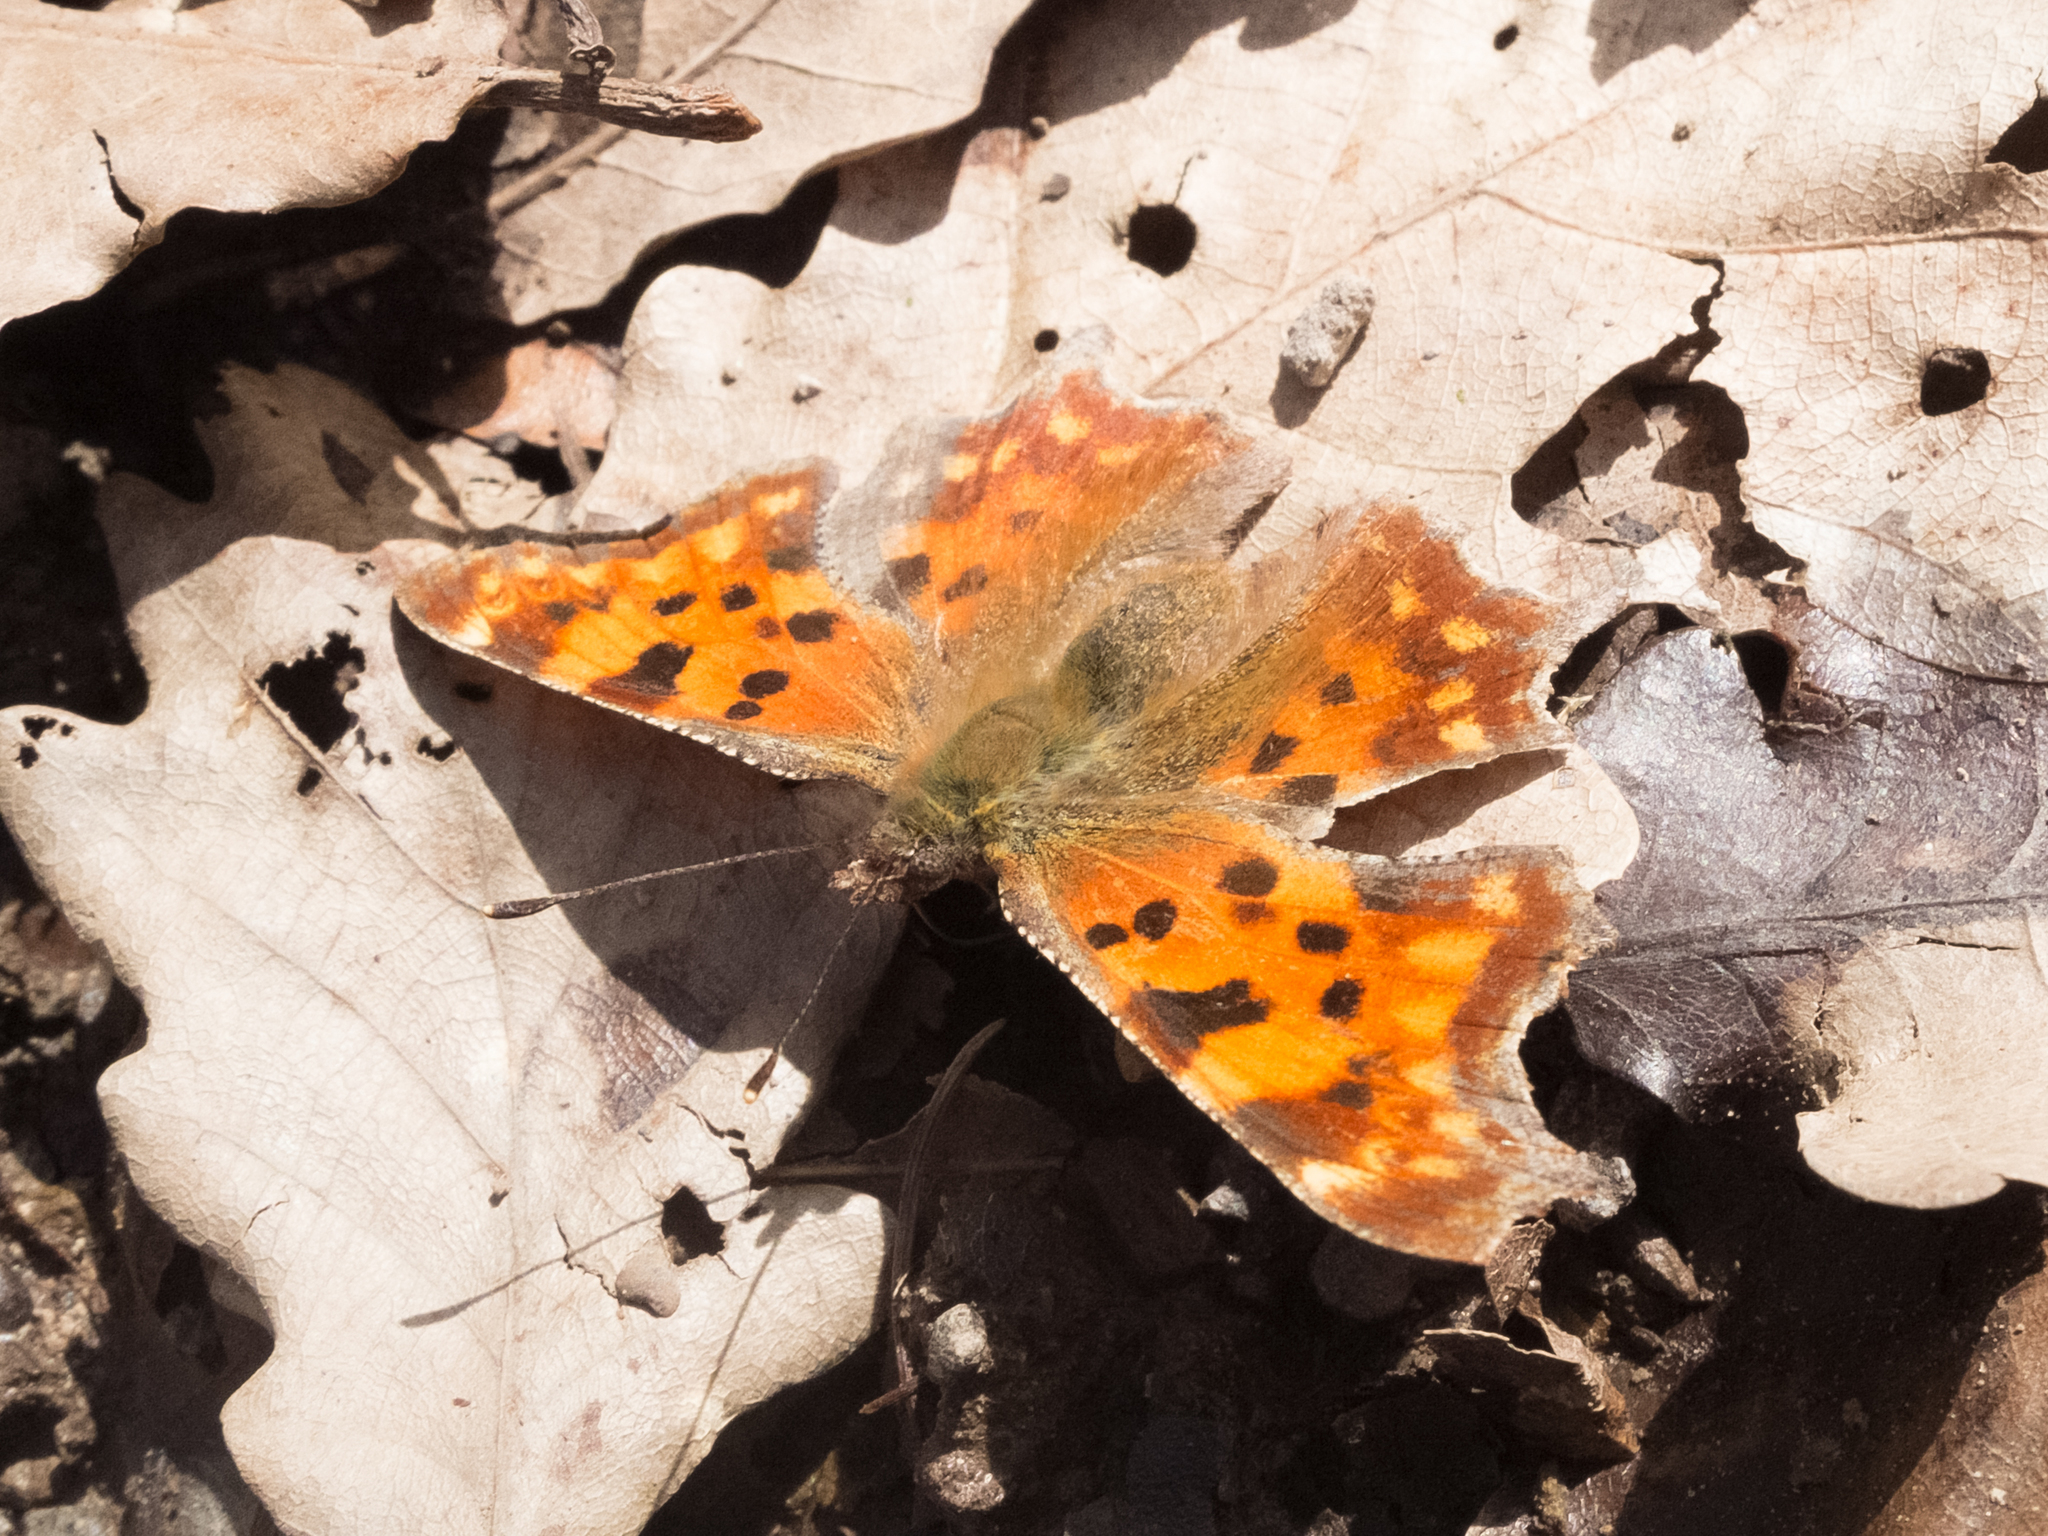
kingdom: Animalia
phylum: Arthropoda
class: Insecta
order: Lepidoptera
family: Nymphalidae
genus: Polygonia
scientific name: Polygonia c-album
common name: Comma
